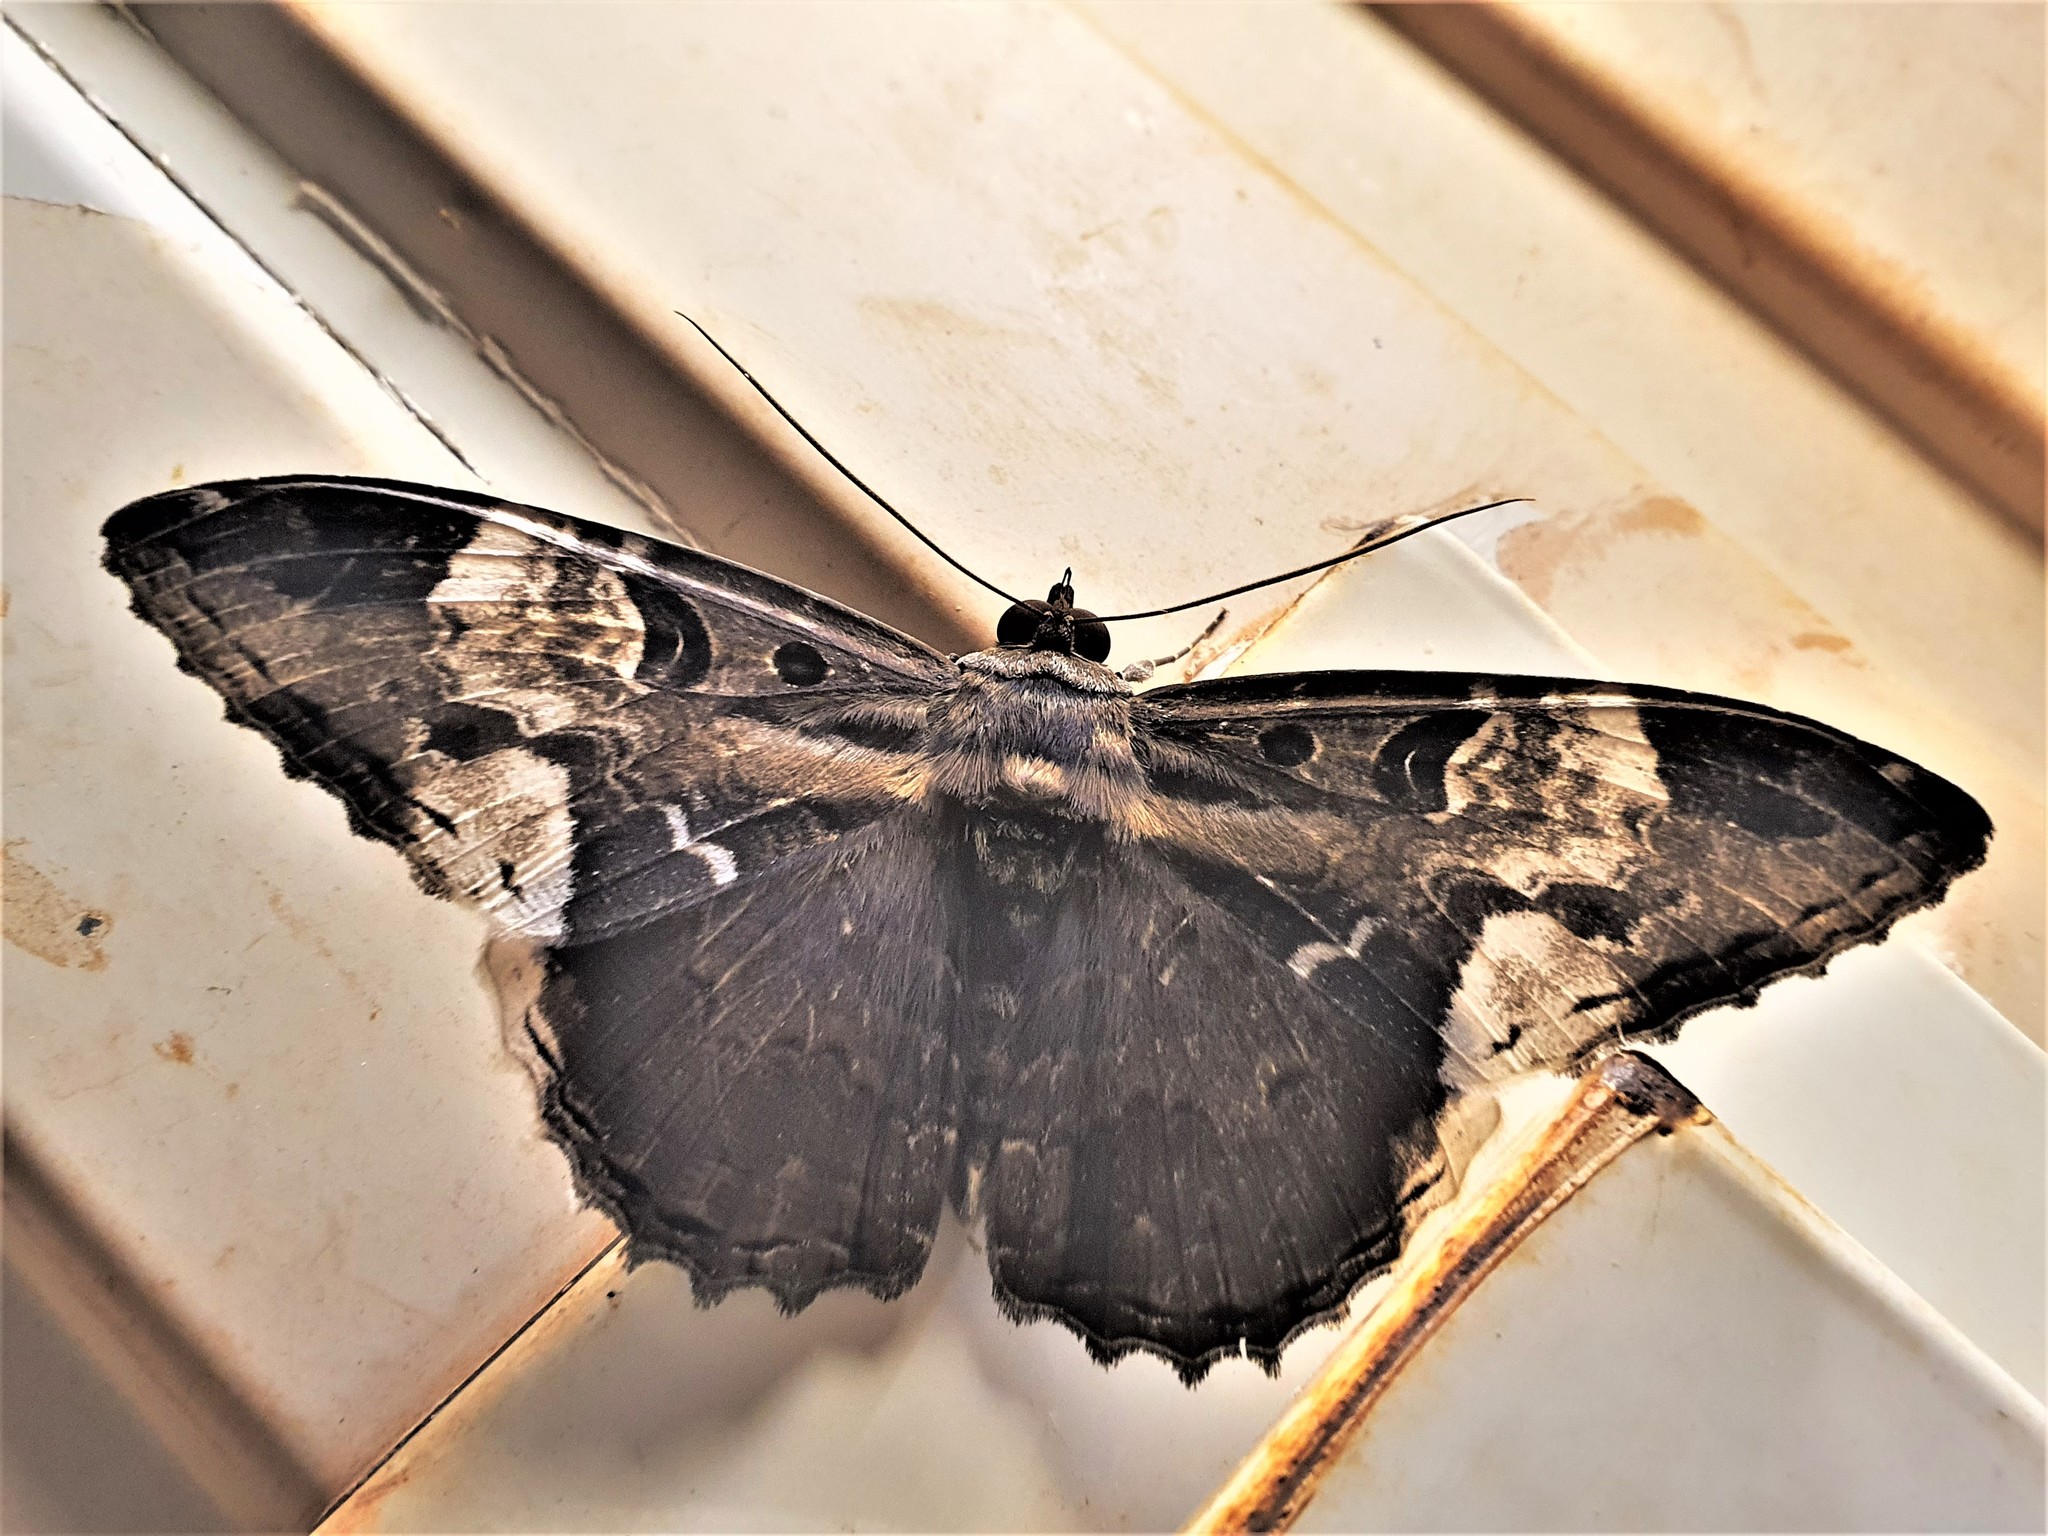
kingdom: Animalia
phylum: Arthropoda
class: Insecta
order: Lepidoptera
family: Erebidae
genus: Feigeria
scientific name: Feigeria herilia
